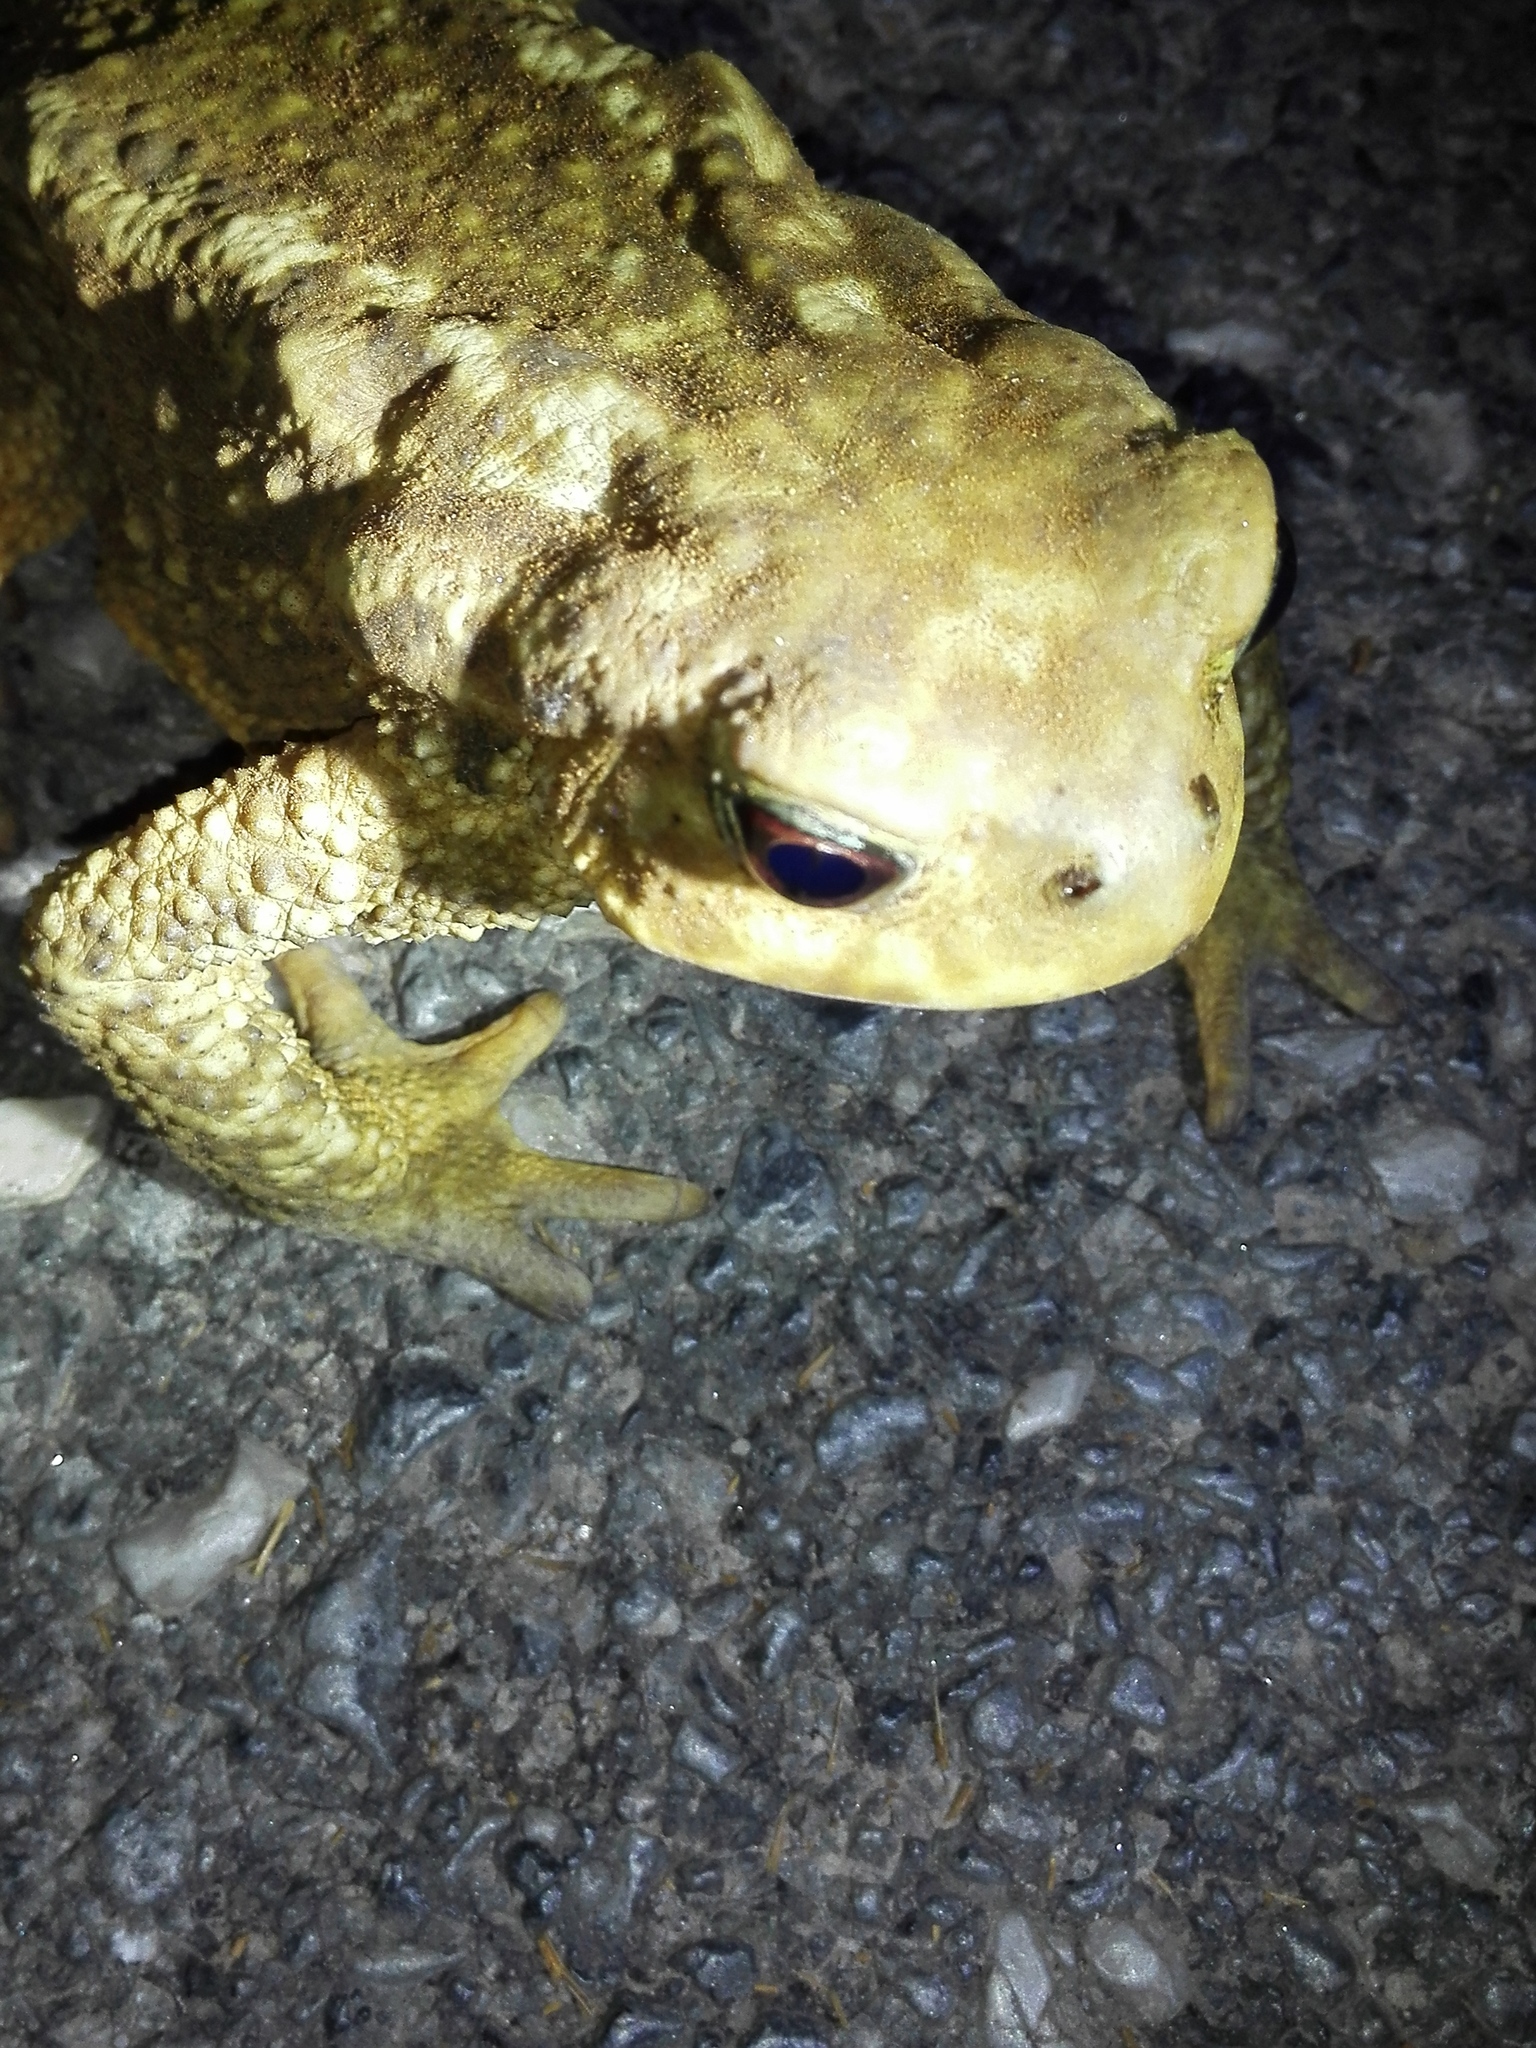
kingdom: Animalia
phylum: Chordata
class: Amphibia
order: Anura
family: Bufonidae
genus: Bufo
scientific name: Bufo spinosus
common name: Western common toad
